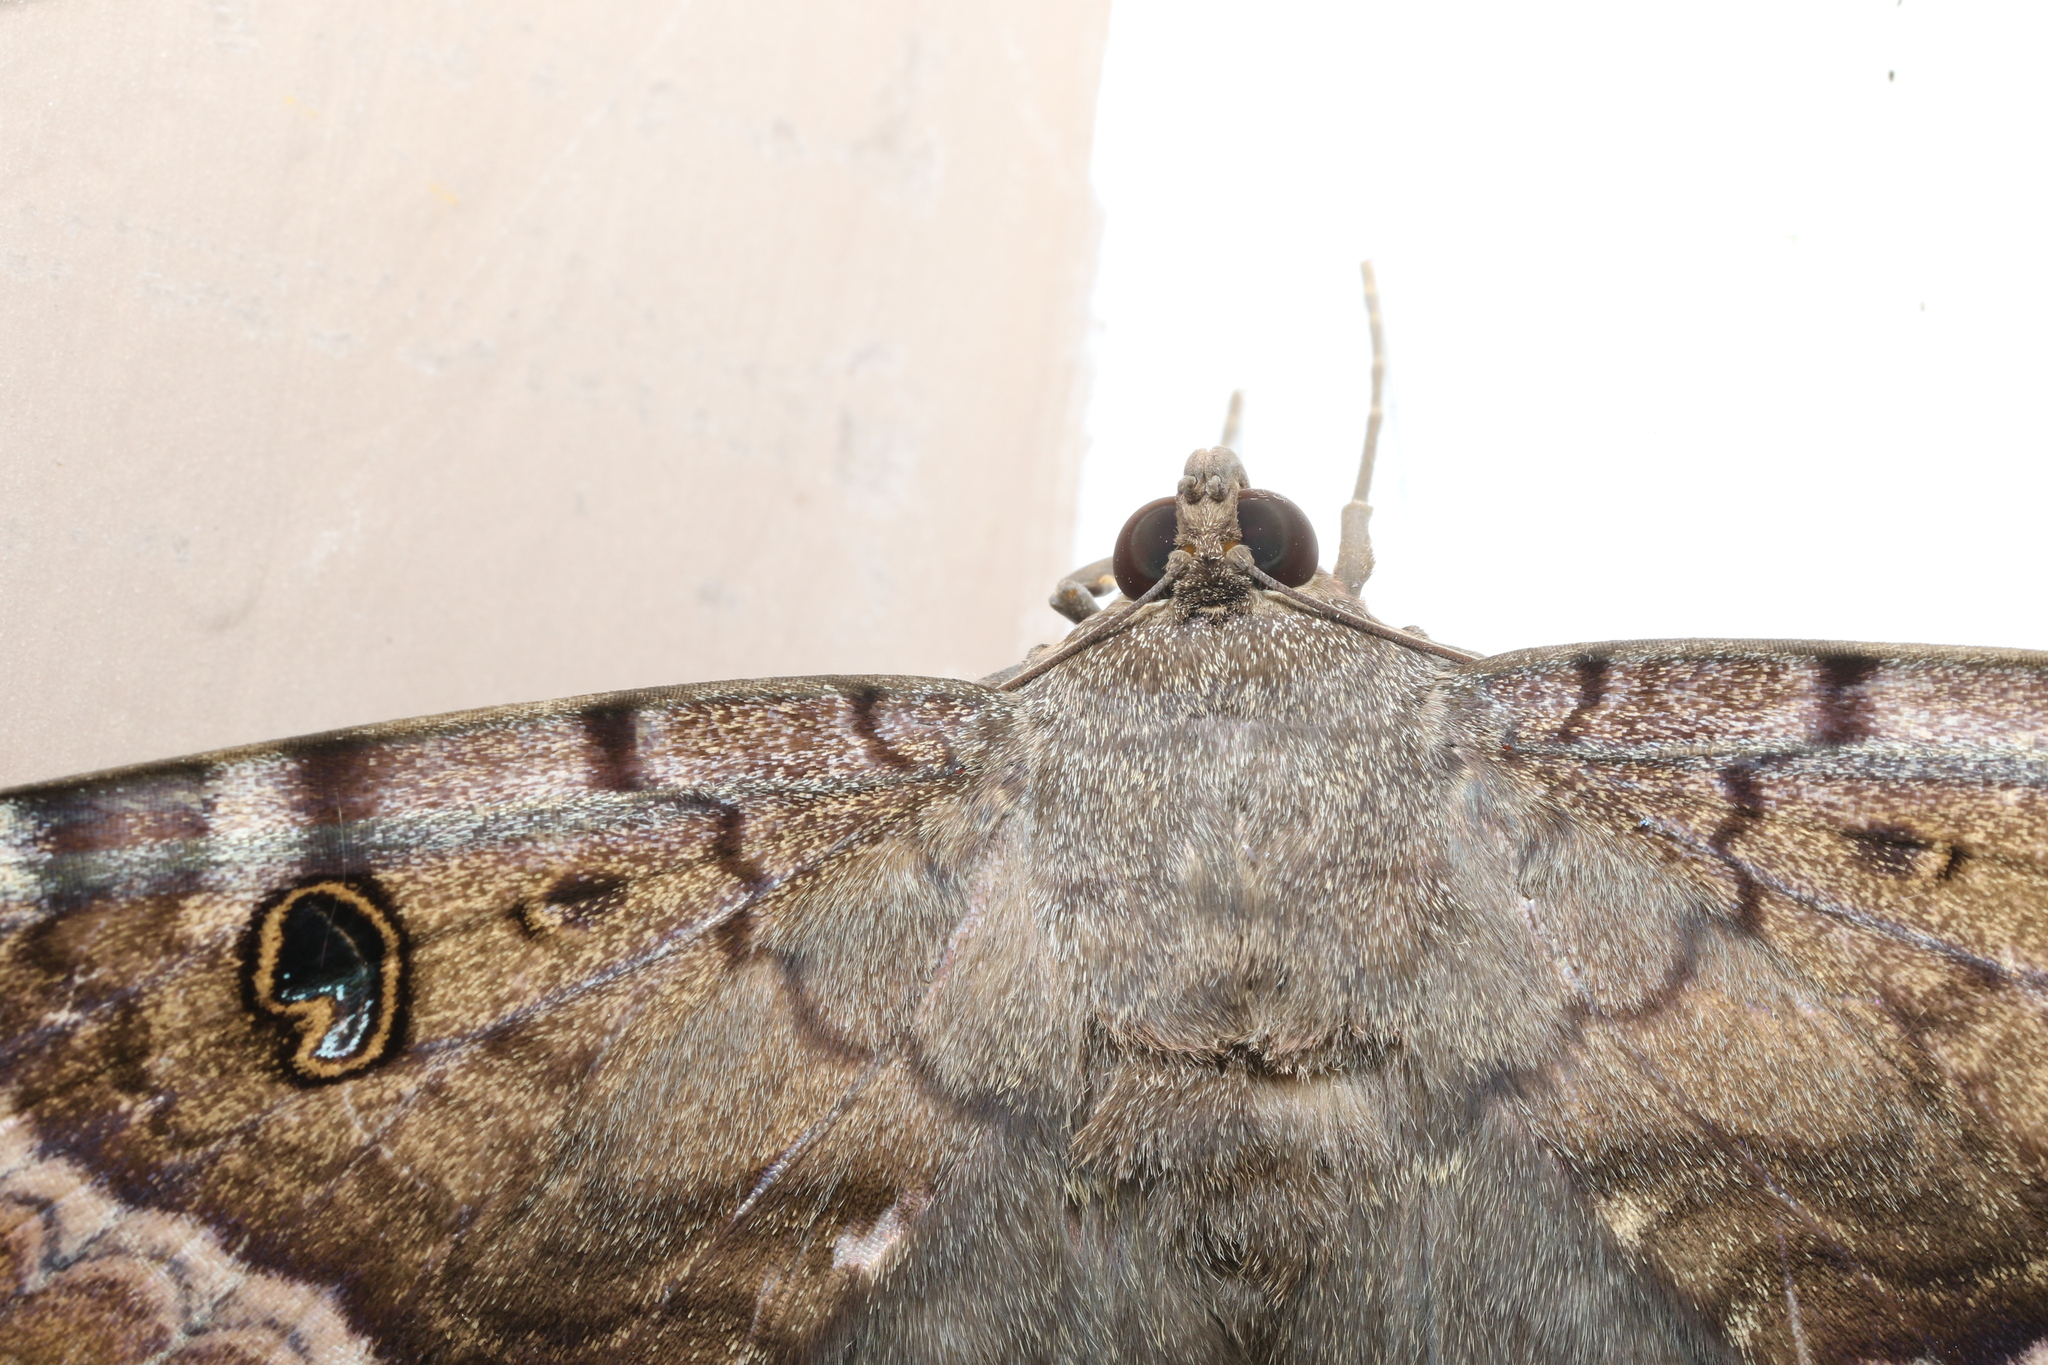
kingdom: Animalia
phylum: Arthropoda
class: Insecta
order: Lepidoptera
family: Erebidae
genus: Ascalapha
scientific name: Ascalapha odorata
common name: Black witch
